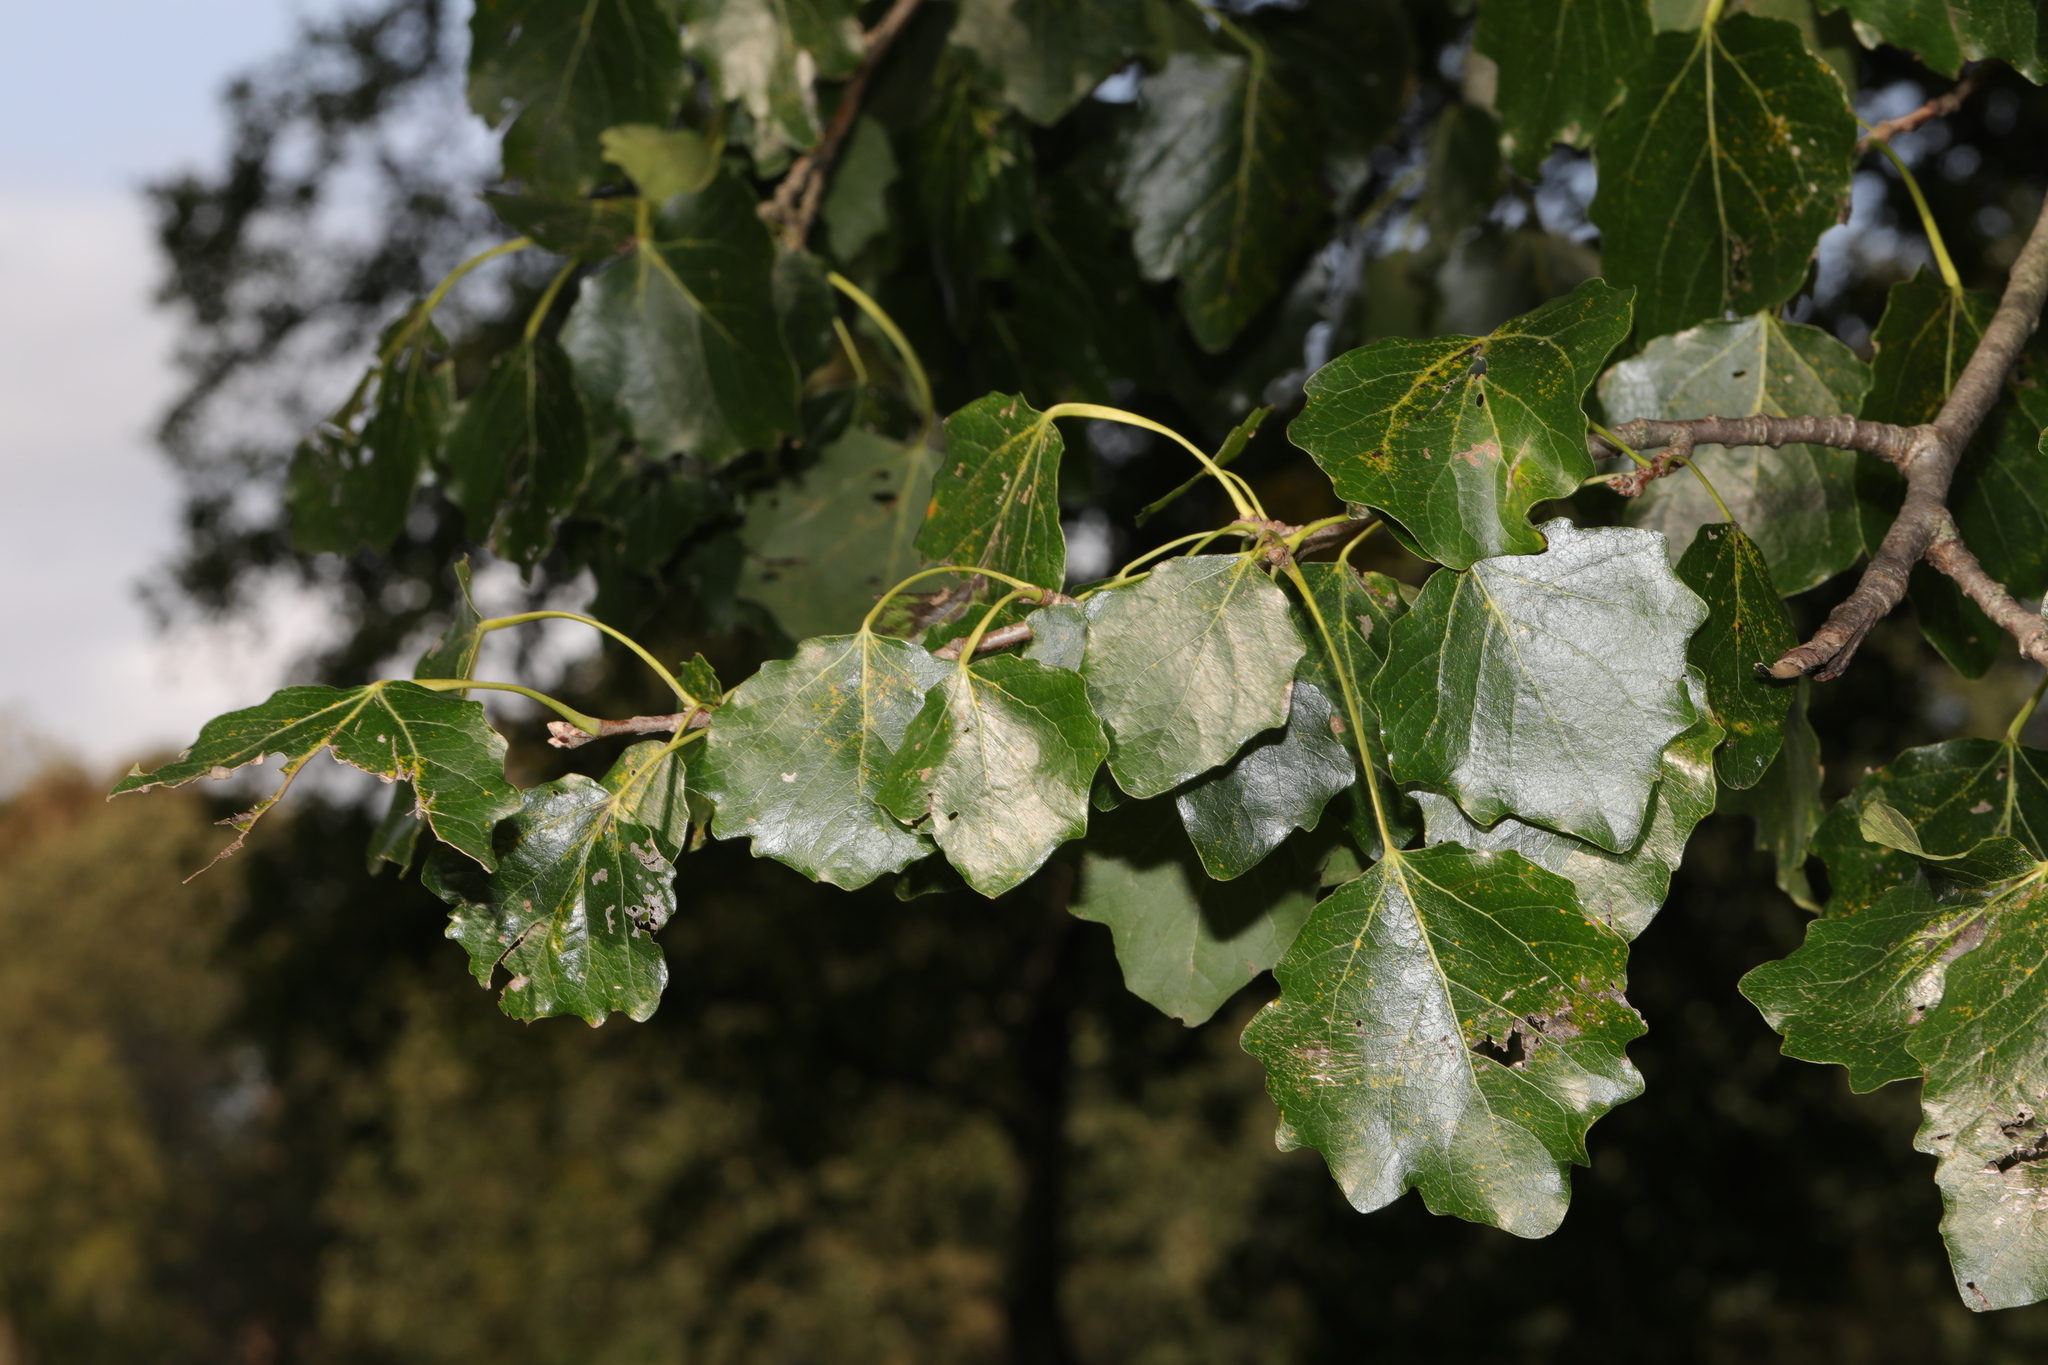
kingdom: Plantae
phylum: Tracheophyta
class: Magnoliopsida
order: Malpighiales
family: Salicaceae
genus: Populus
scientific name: Populus canescens
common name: Gray poplar
